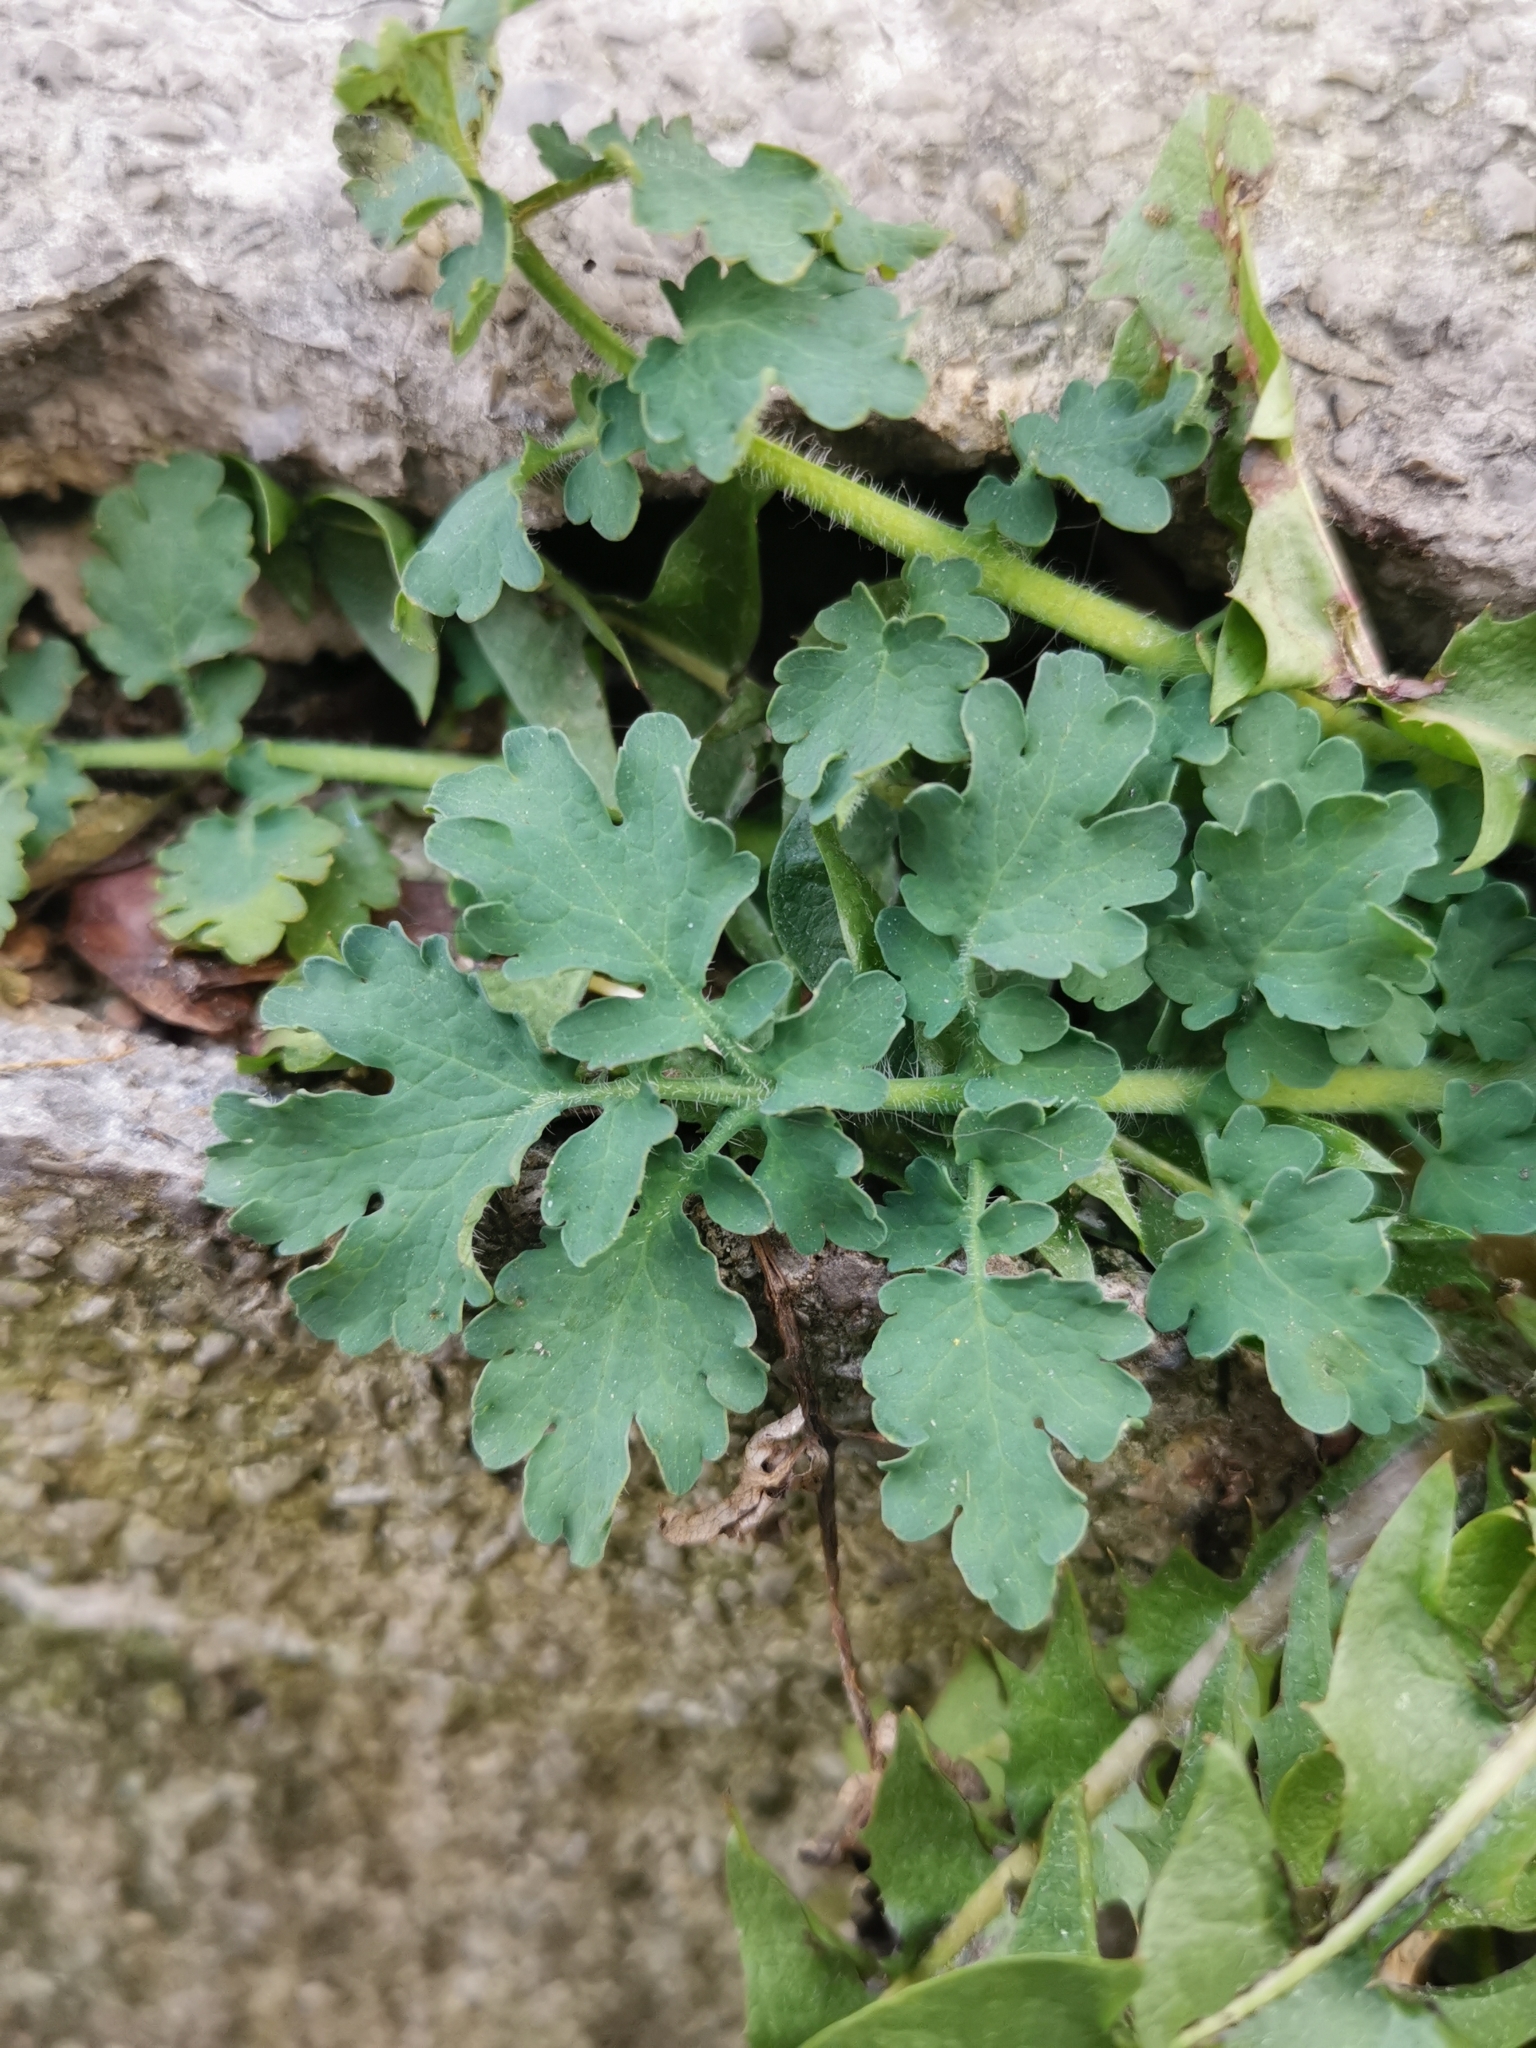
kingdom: Plantae
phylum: Tracheophyta
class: Magnoliopsida
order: Ranunculales
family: Papaveraceae
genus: Chelidonium
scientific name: Chelidonium majus
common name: Greater celandine
